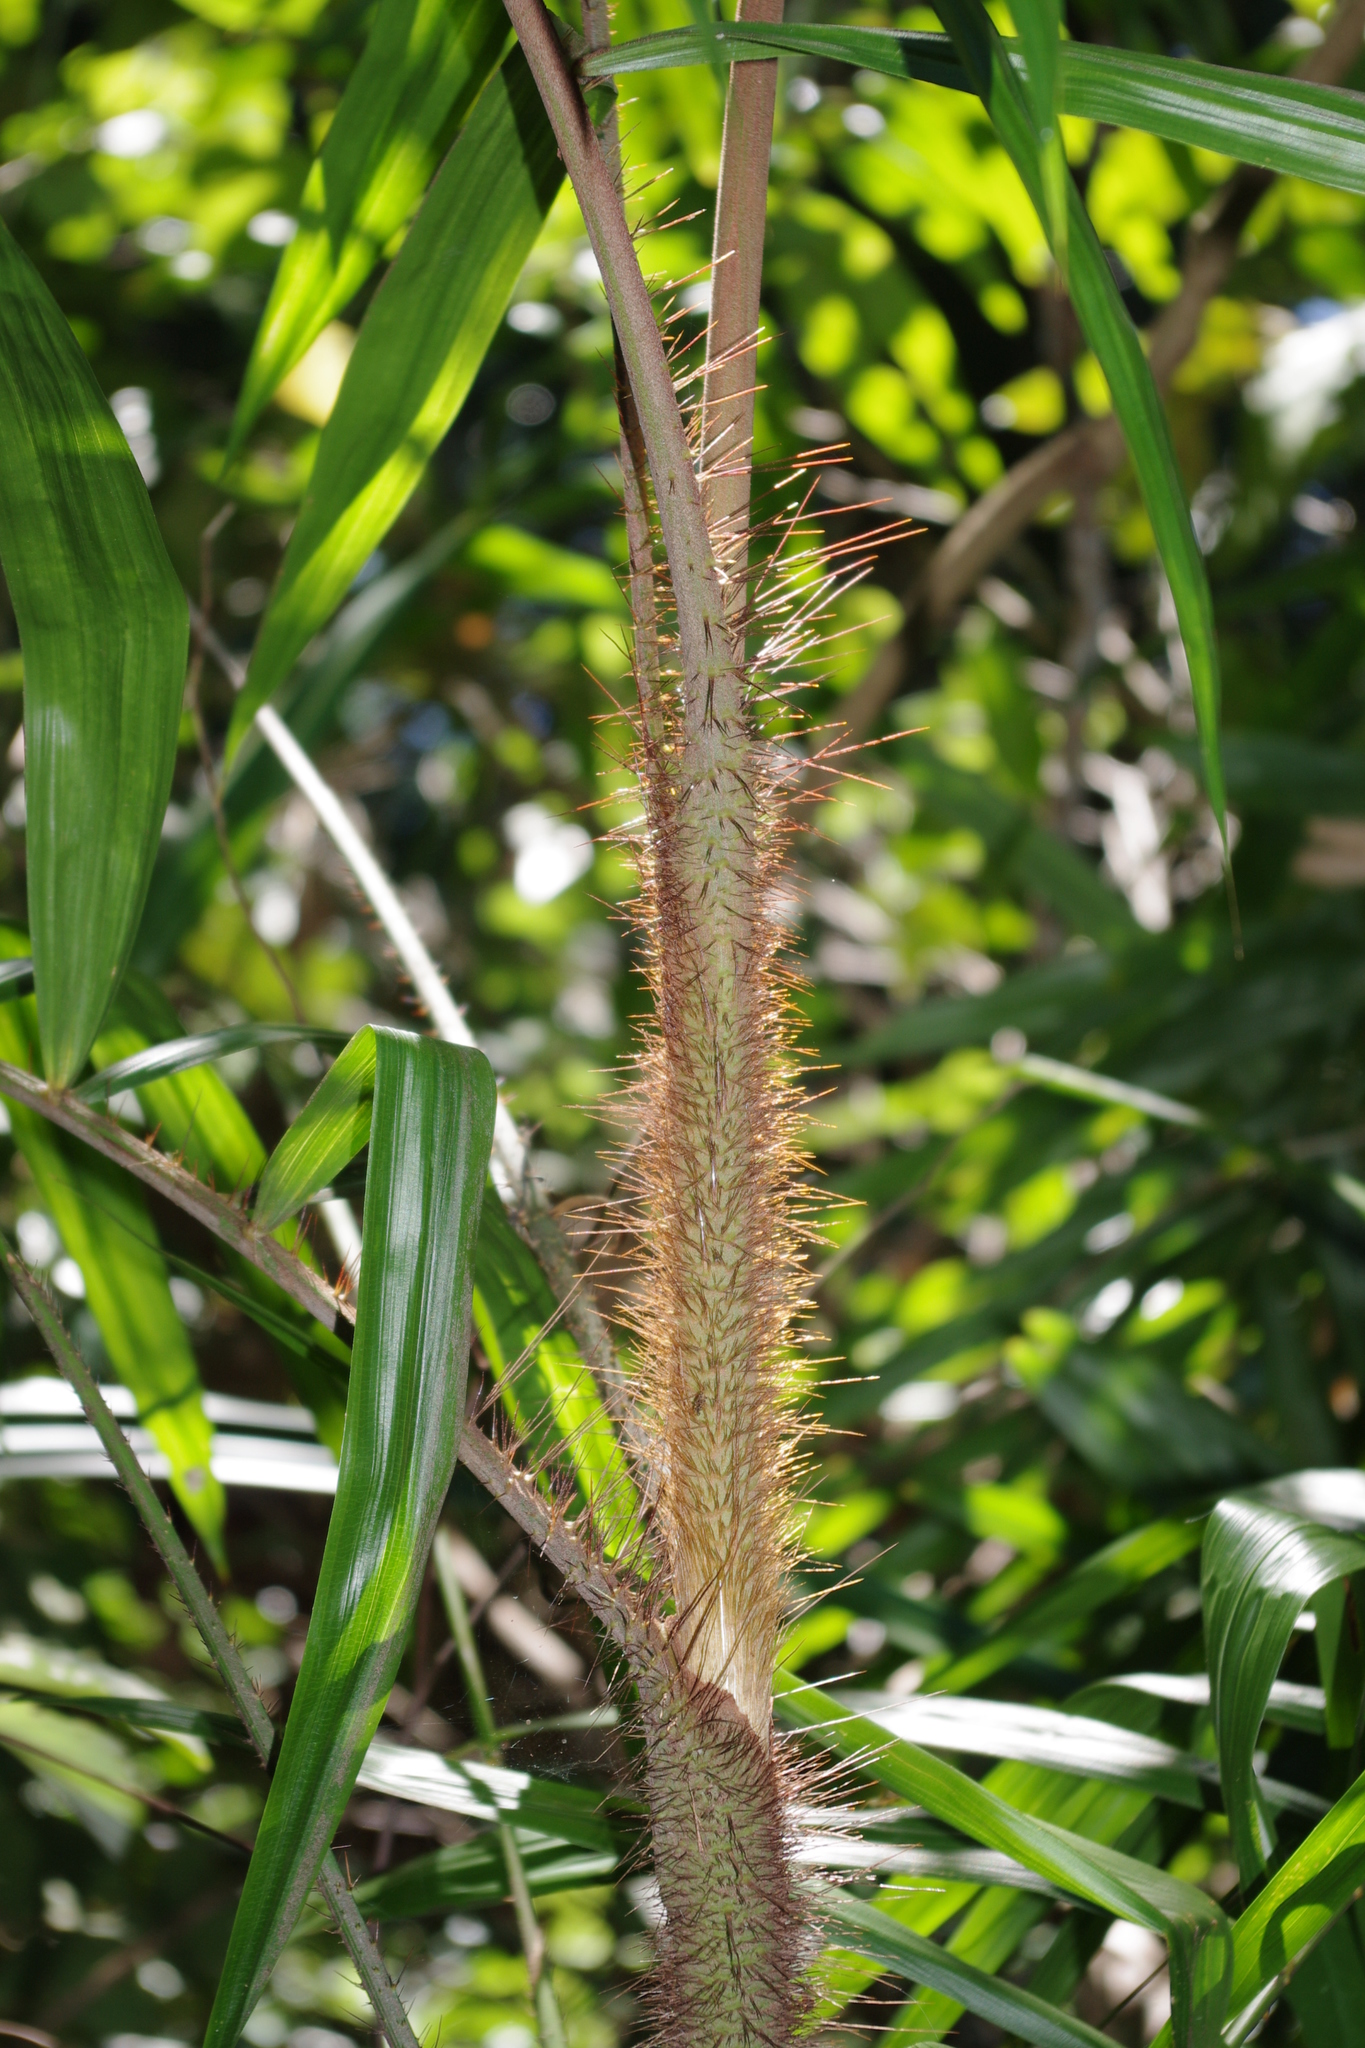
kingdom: Plantae
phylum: Tracheophyta
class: Liliopsida
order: Arecales
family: Arecaceae
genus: Calamus
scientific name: Calamus australis
